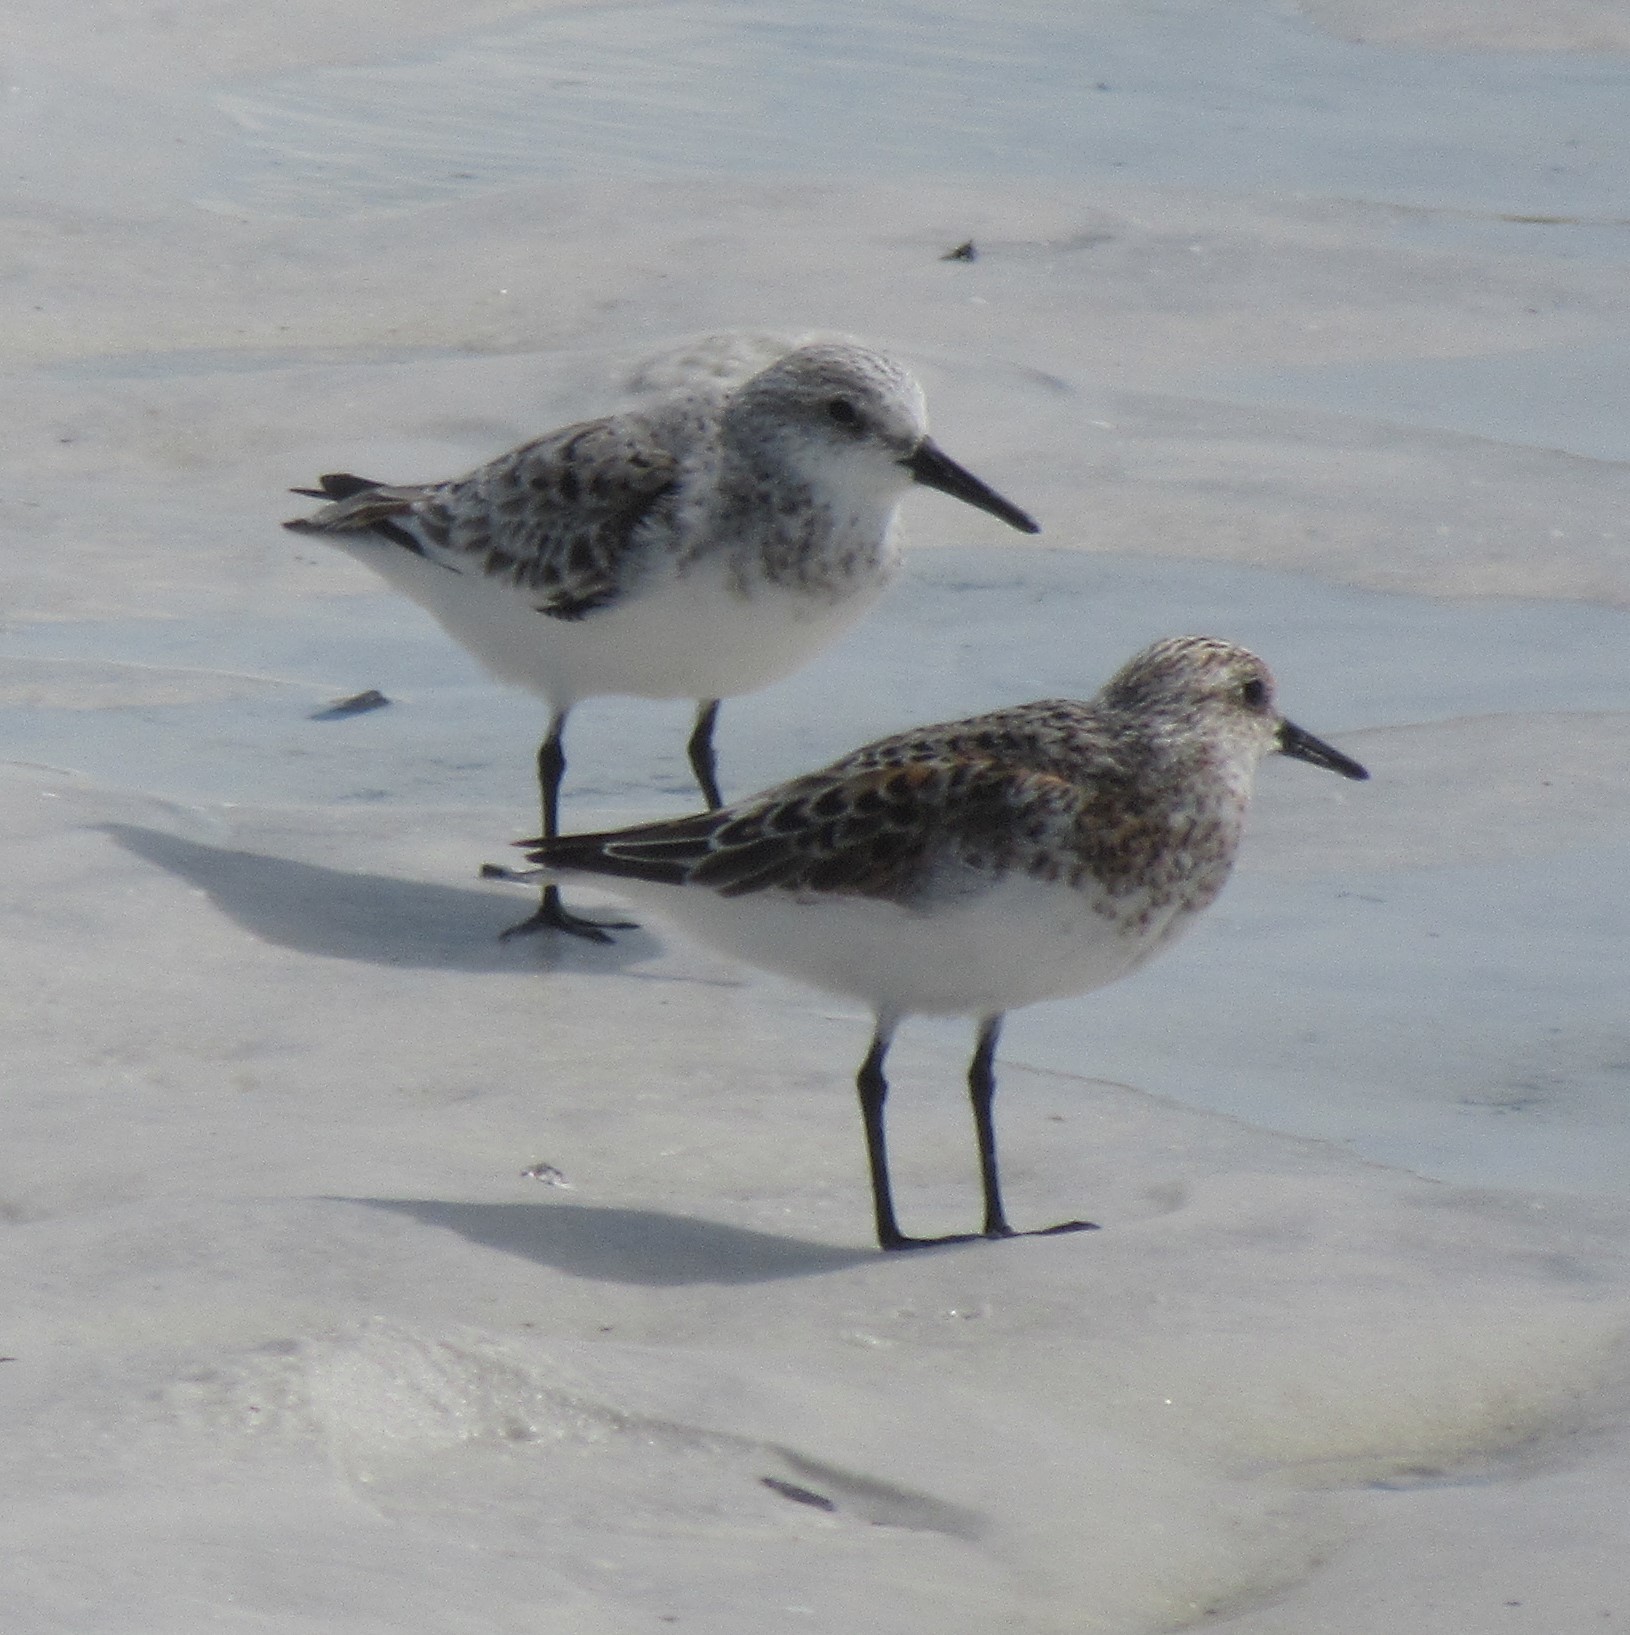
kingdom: Animalia
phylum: Chordata
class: Aves
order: Charadriiformes
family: Scolopacidae
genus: Calidris
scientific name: Calidris alba
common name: Sanderling
